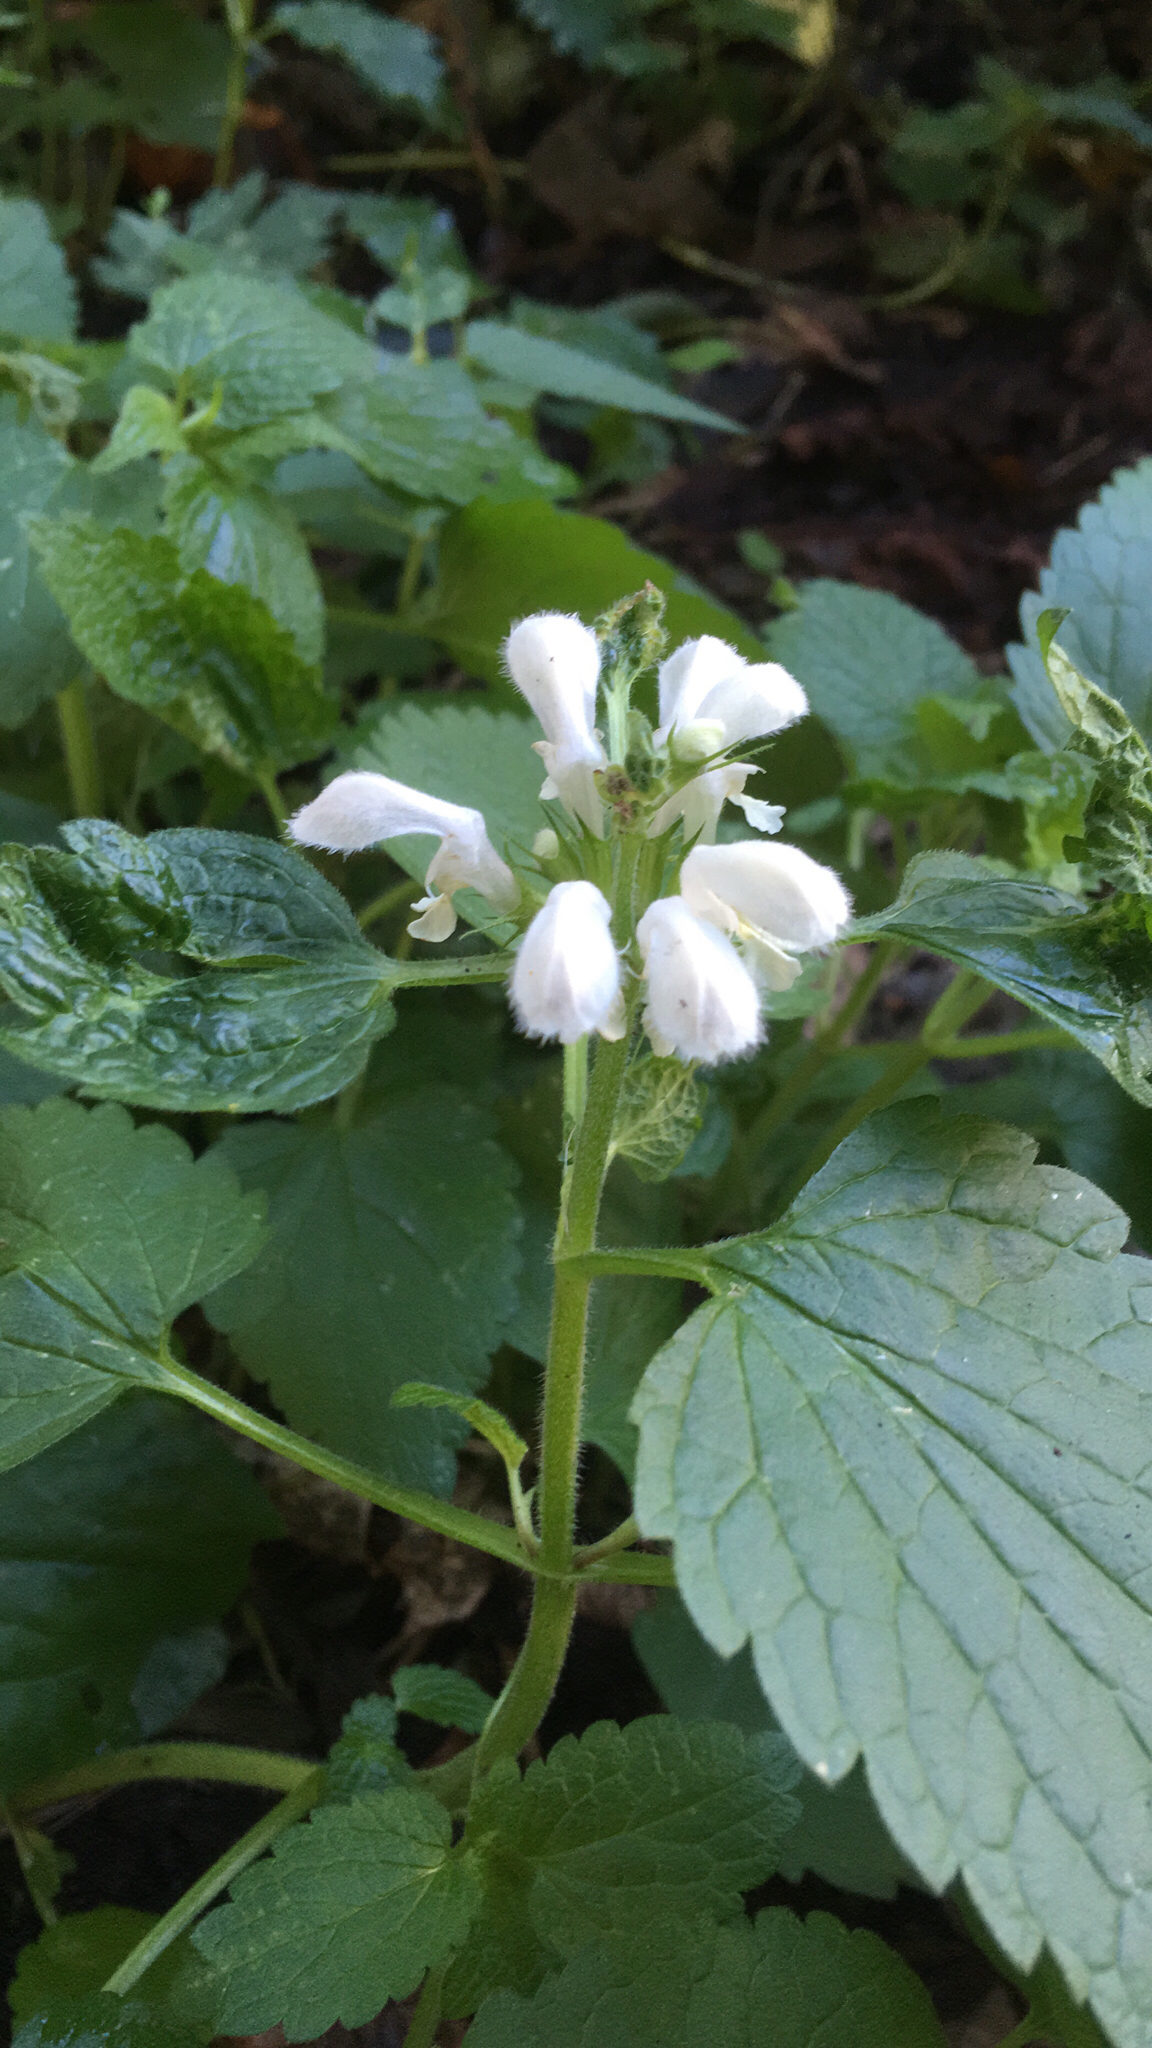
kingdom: Plantae
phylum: Tracheophyta
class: Magnoliopsida
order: Lamiales
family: Lamiaceae
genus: Lamium
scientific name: Lamium album
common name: White dead-nettle
